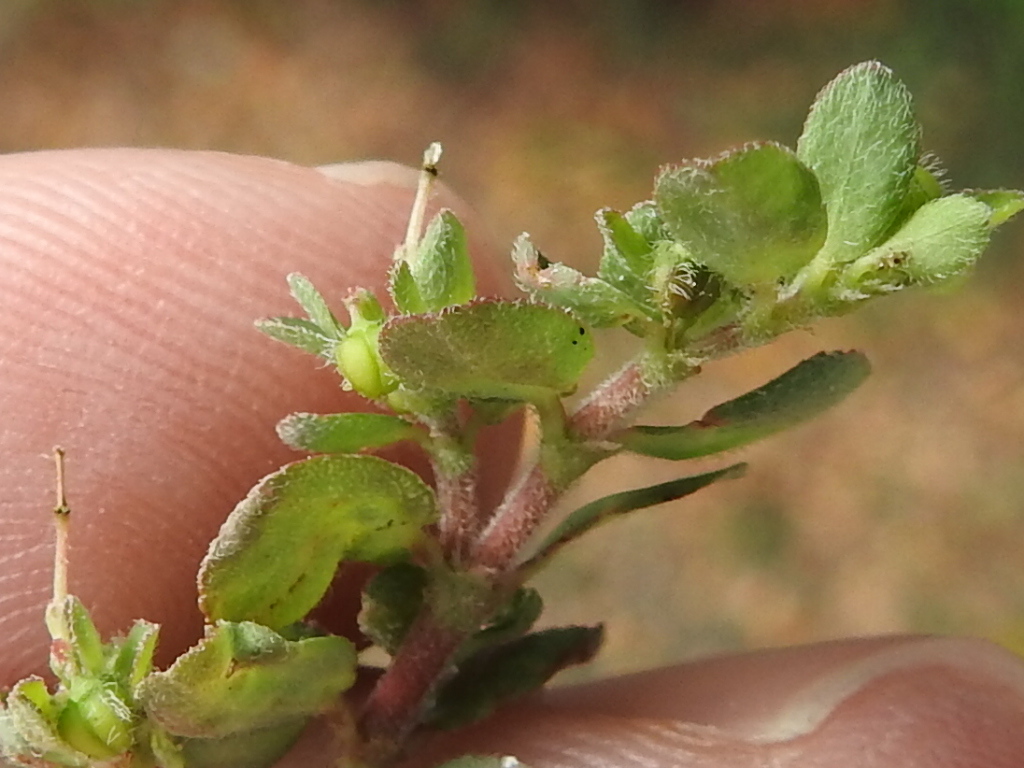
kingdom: Plantae
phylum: Tracheophyta
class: Magnoliopsida
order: Malpighiales
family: Euphorbiaceae
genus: Euphorbia
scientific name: Euphorbia prostrata
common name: Prostrate sandmat
